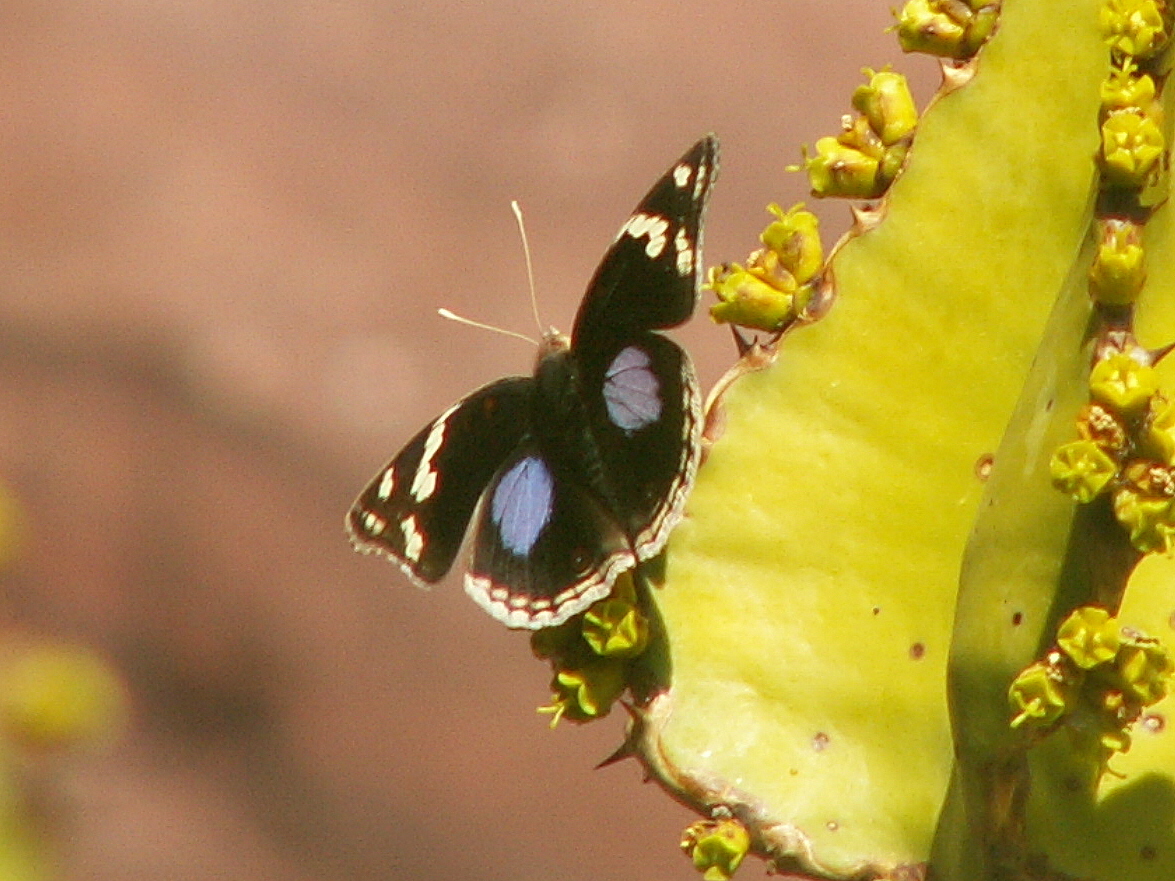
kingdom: Animalia
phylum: Arthropoda
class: Insecta
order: Lepidoptera
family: Nymphalidae
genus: Junonia
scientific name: Junonia oenone
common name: Dark blue pansy
